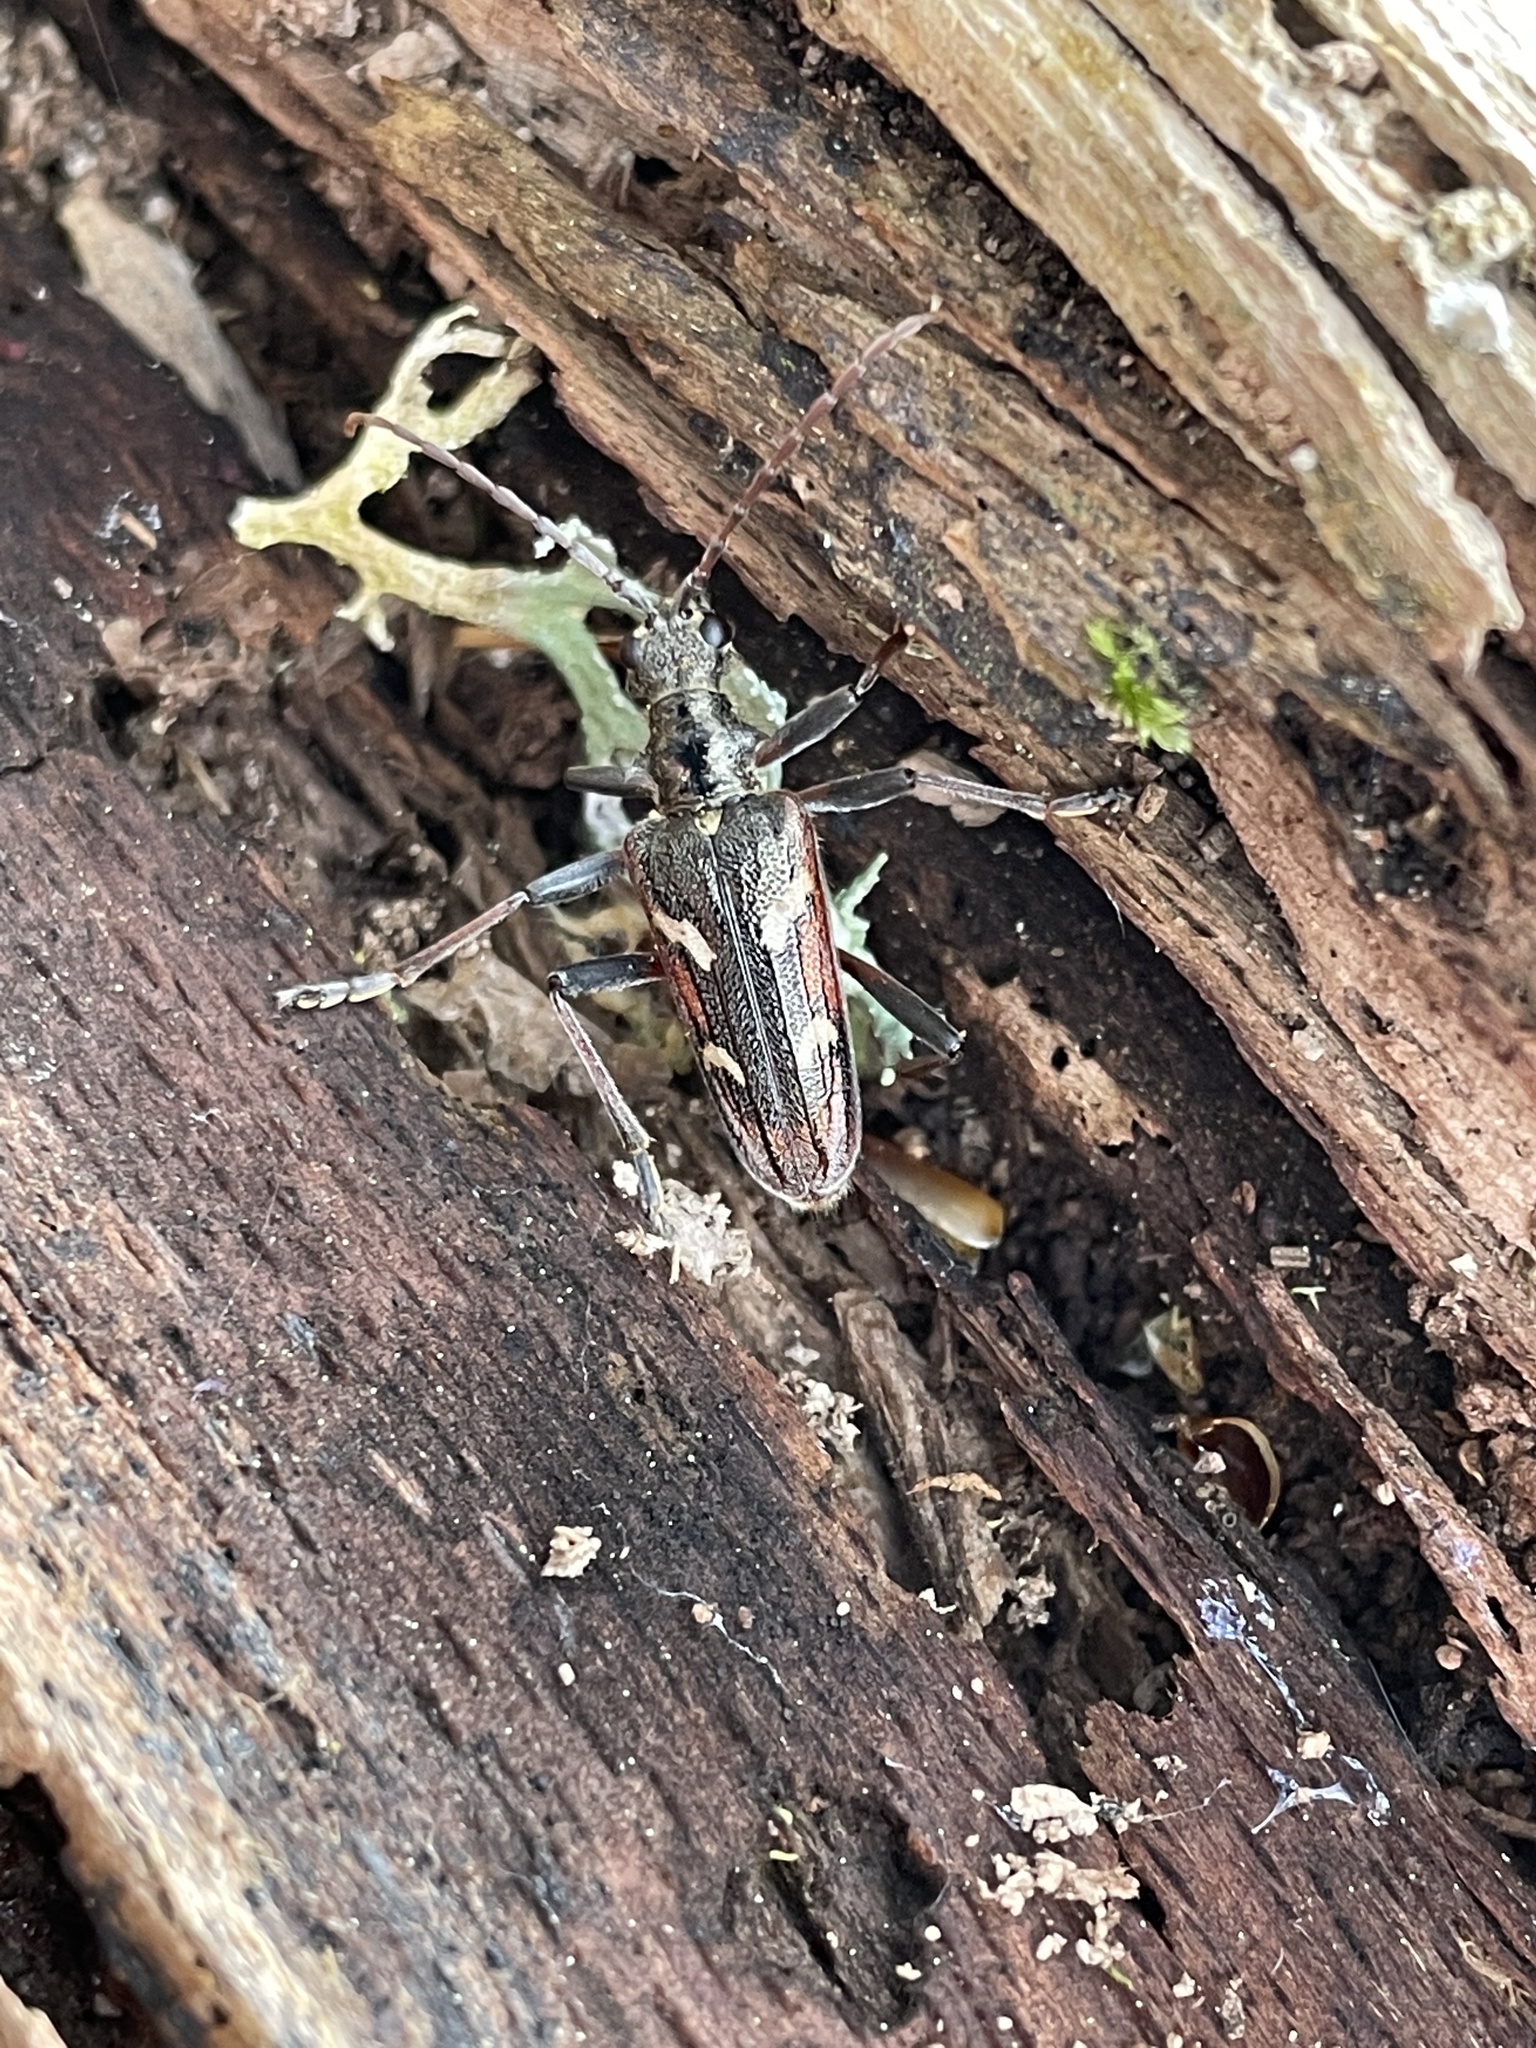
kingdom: Animalia
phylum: Arthropoda
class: Insecta
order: Coleoptera
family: Cerambycidae
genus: Rhagium
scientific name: Rhagium bifasciatum
